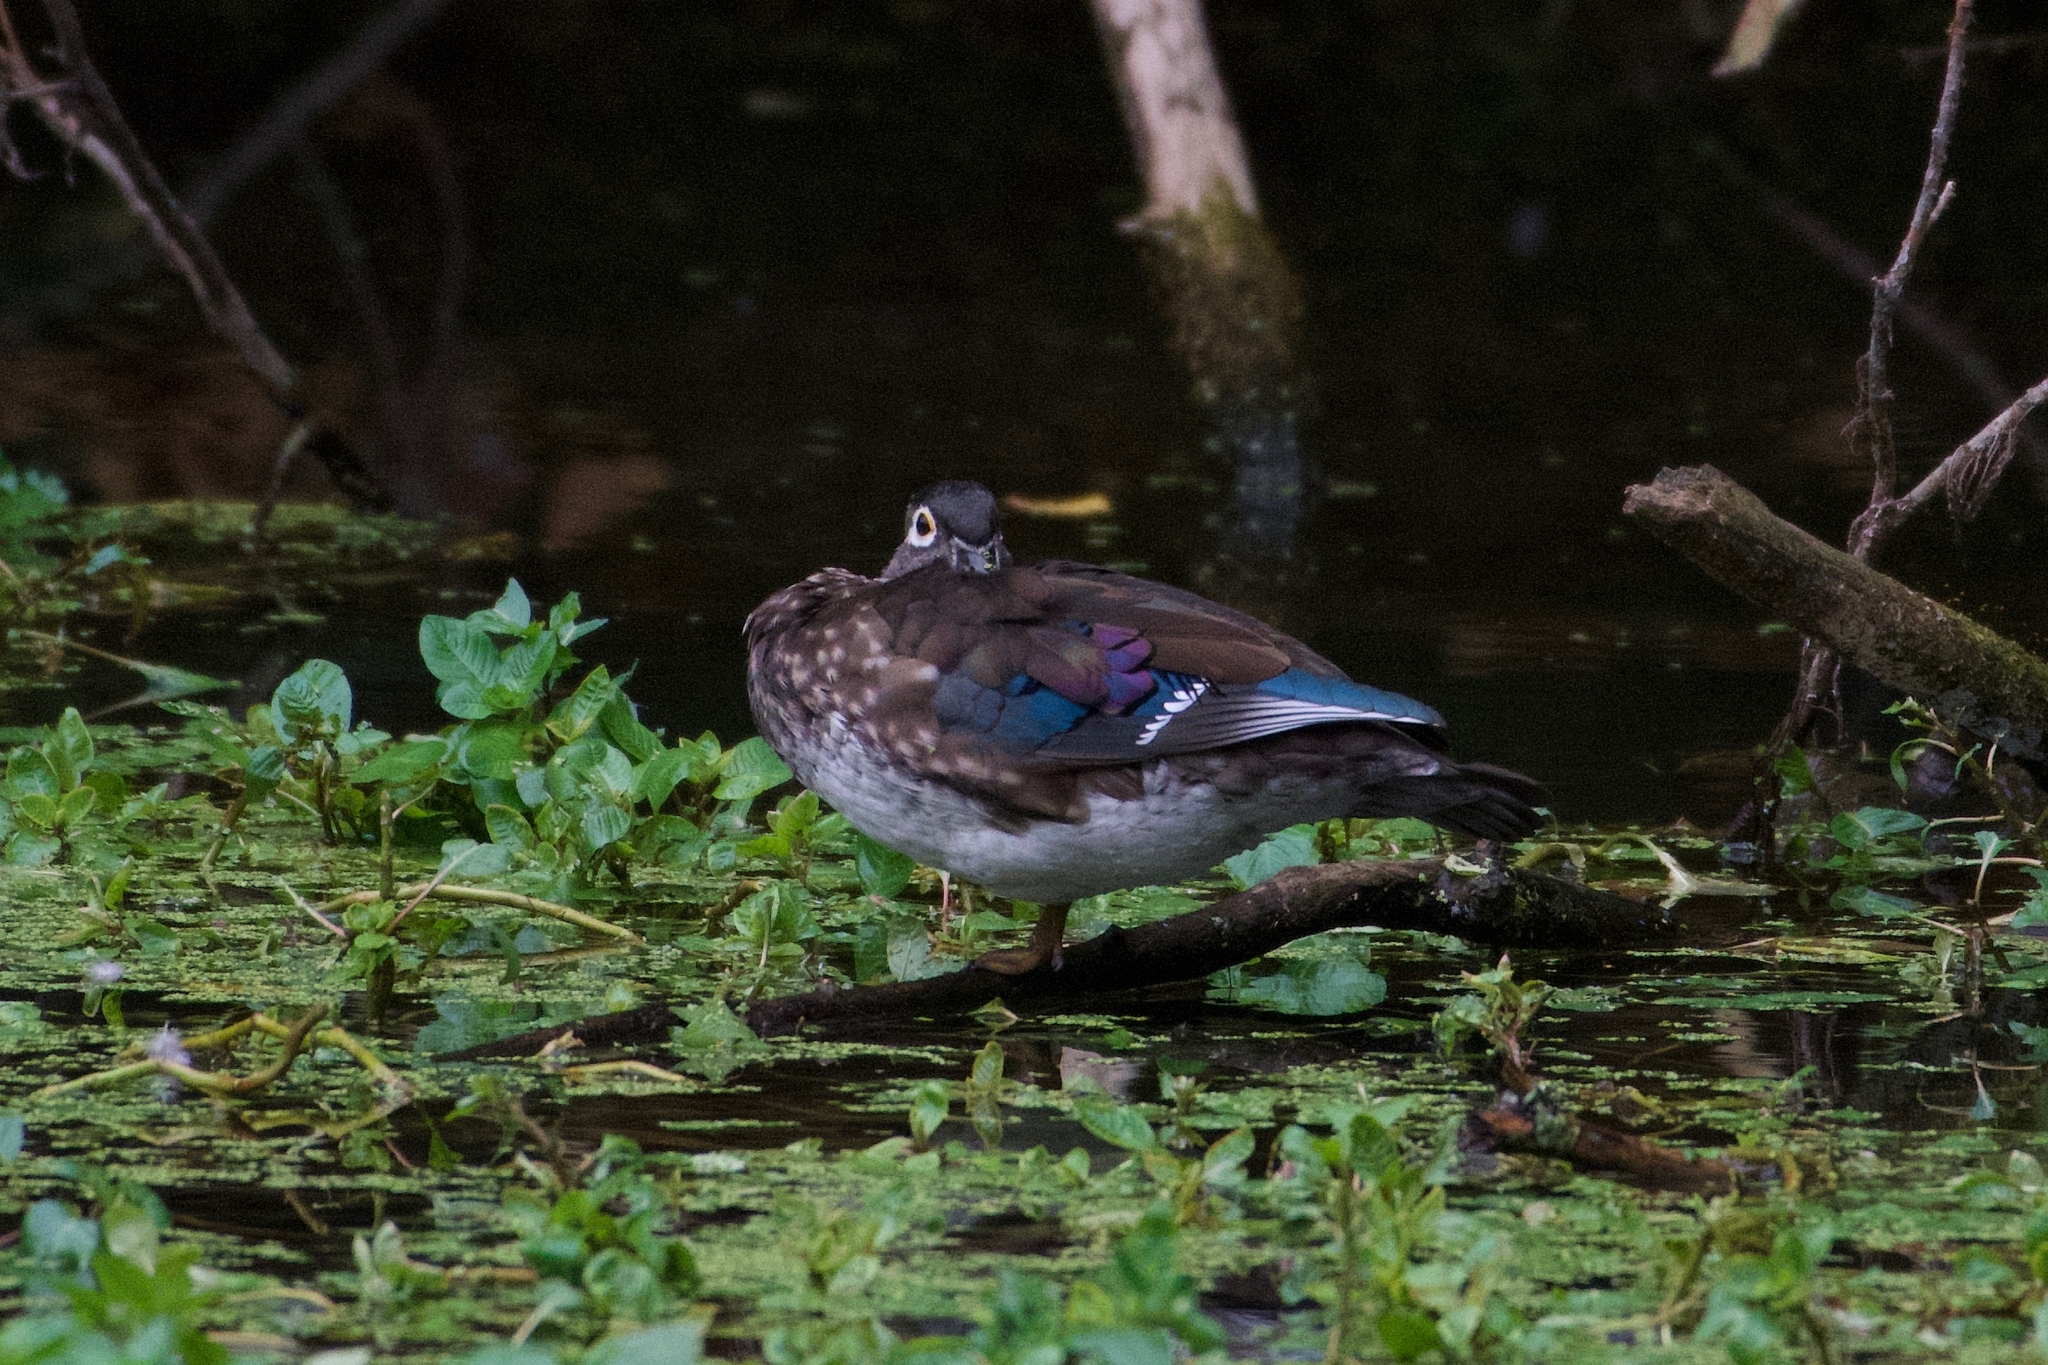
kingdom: Animalia
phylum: Chordata
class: Aves
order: Anseriformes
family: Anatidae
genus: Aix
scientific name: Aix sponsa
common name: Wood duck
